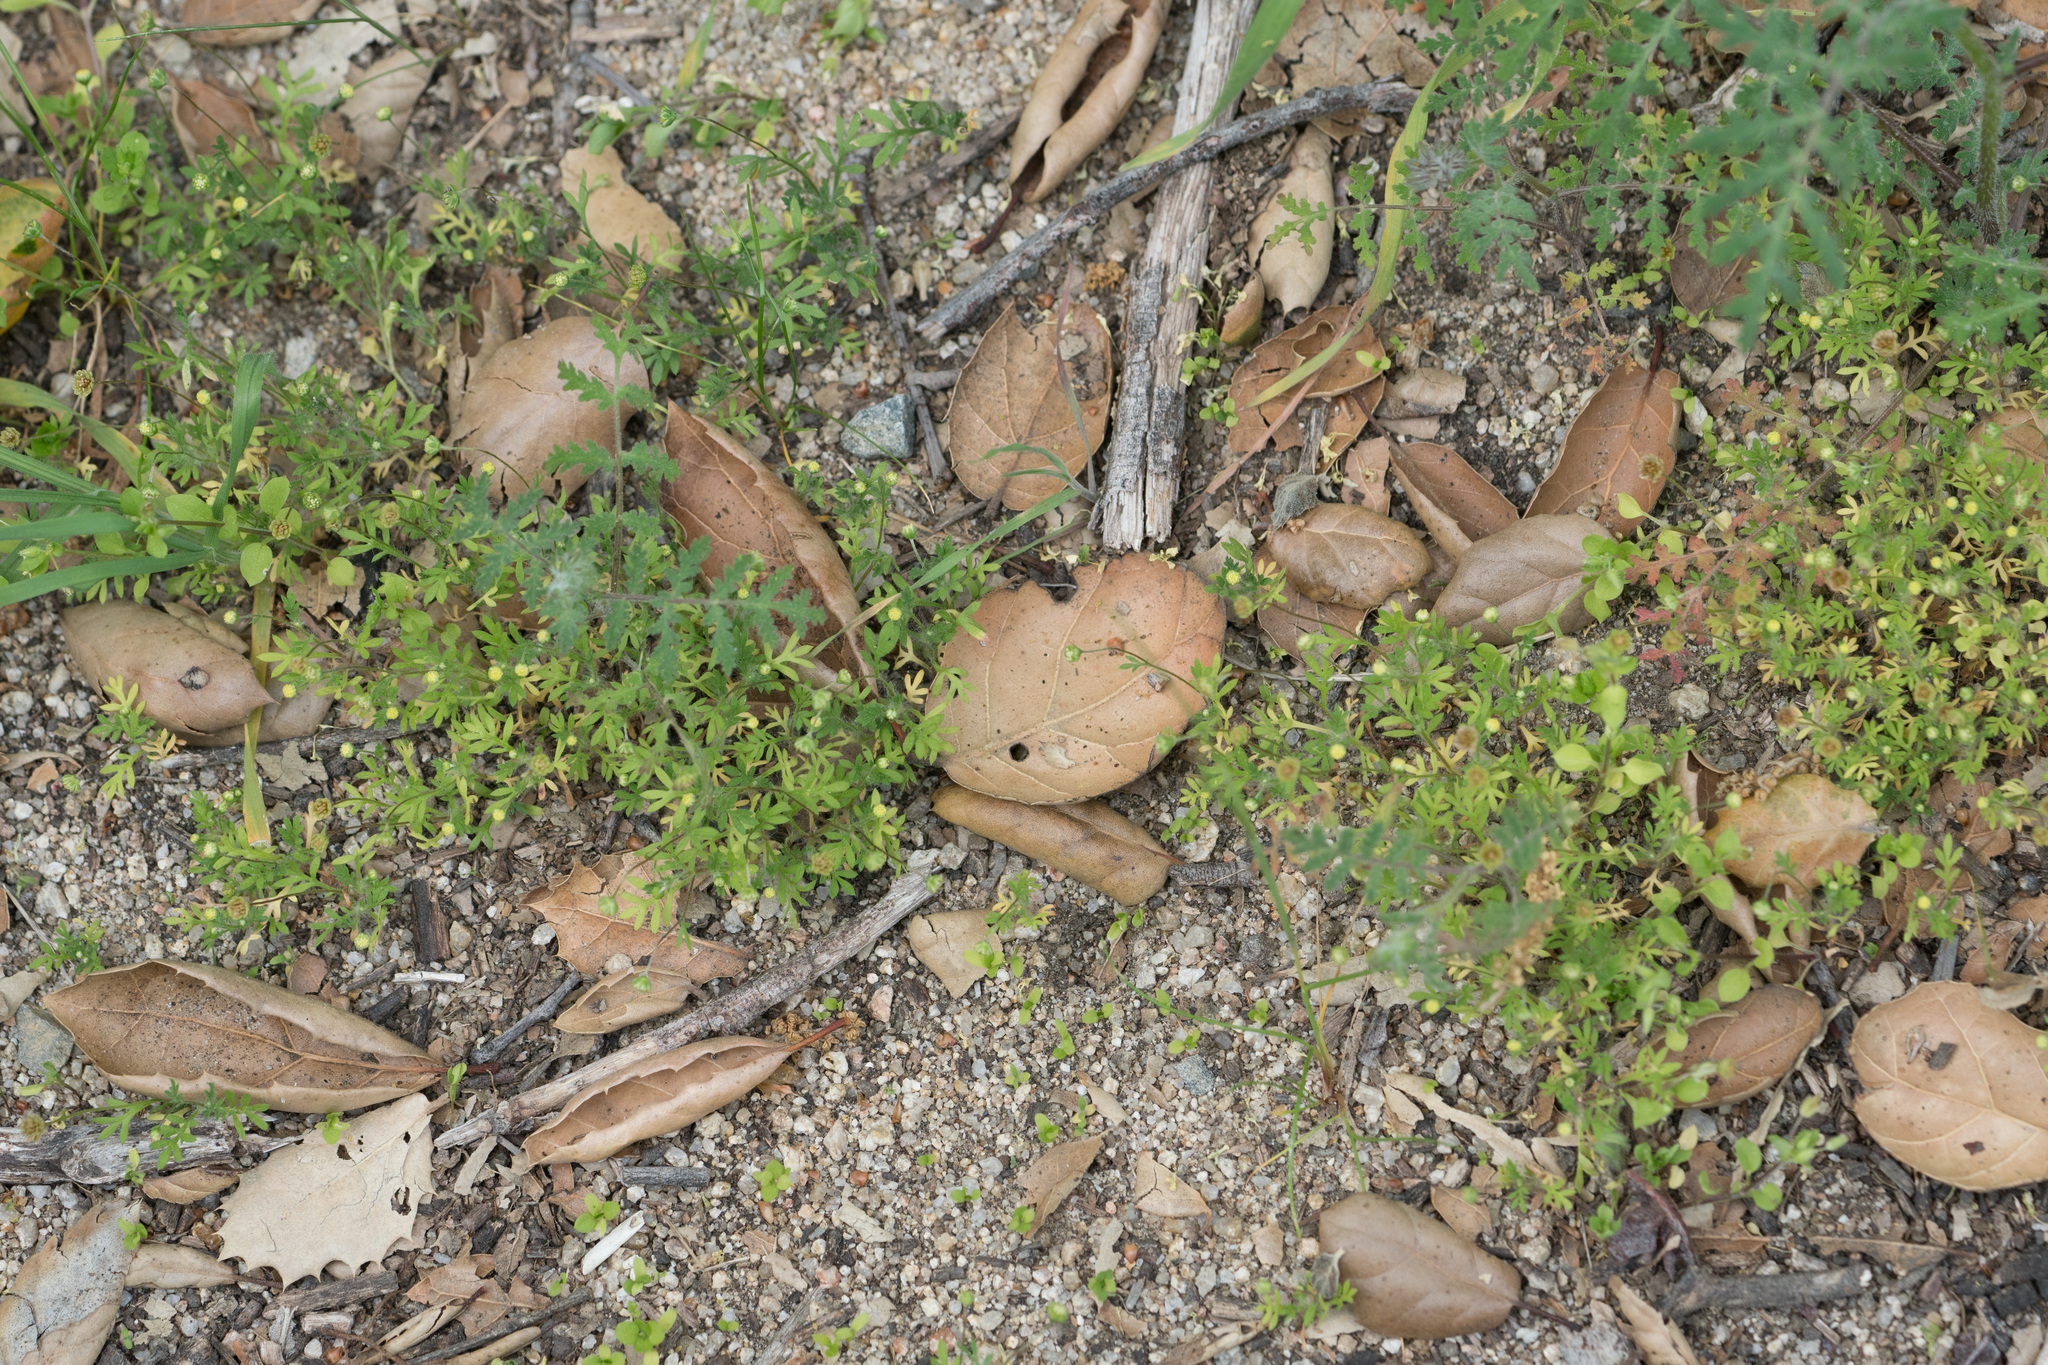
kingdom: Plantae
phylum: Tracheophyta
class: Magnoliopsida
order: Asterales
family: Asteraceae
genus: Cotula
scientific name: Cotula australis
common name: Australian waterbuttons
